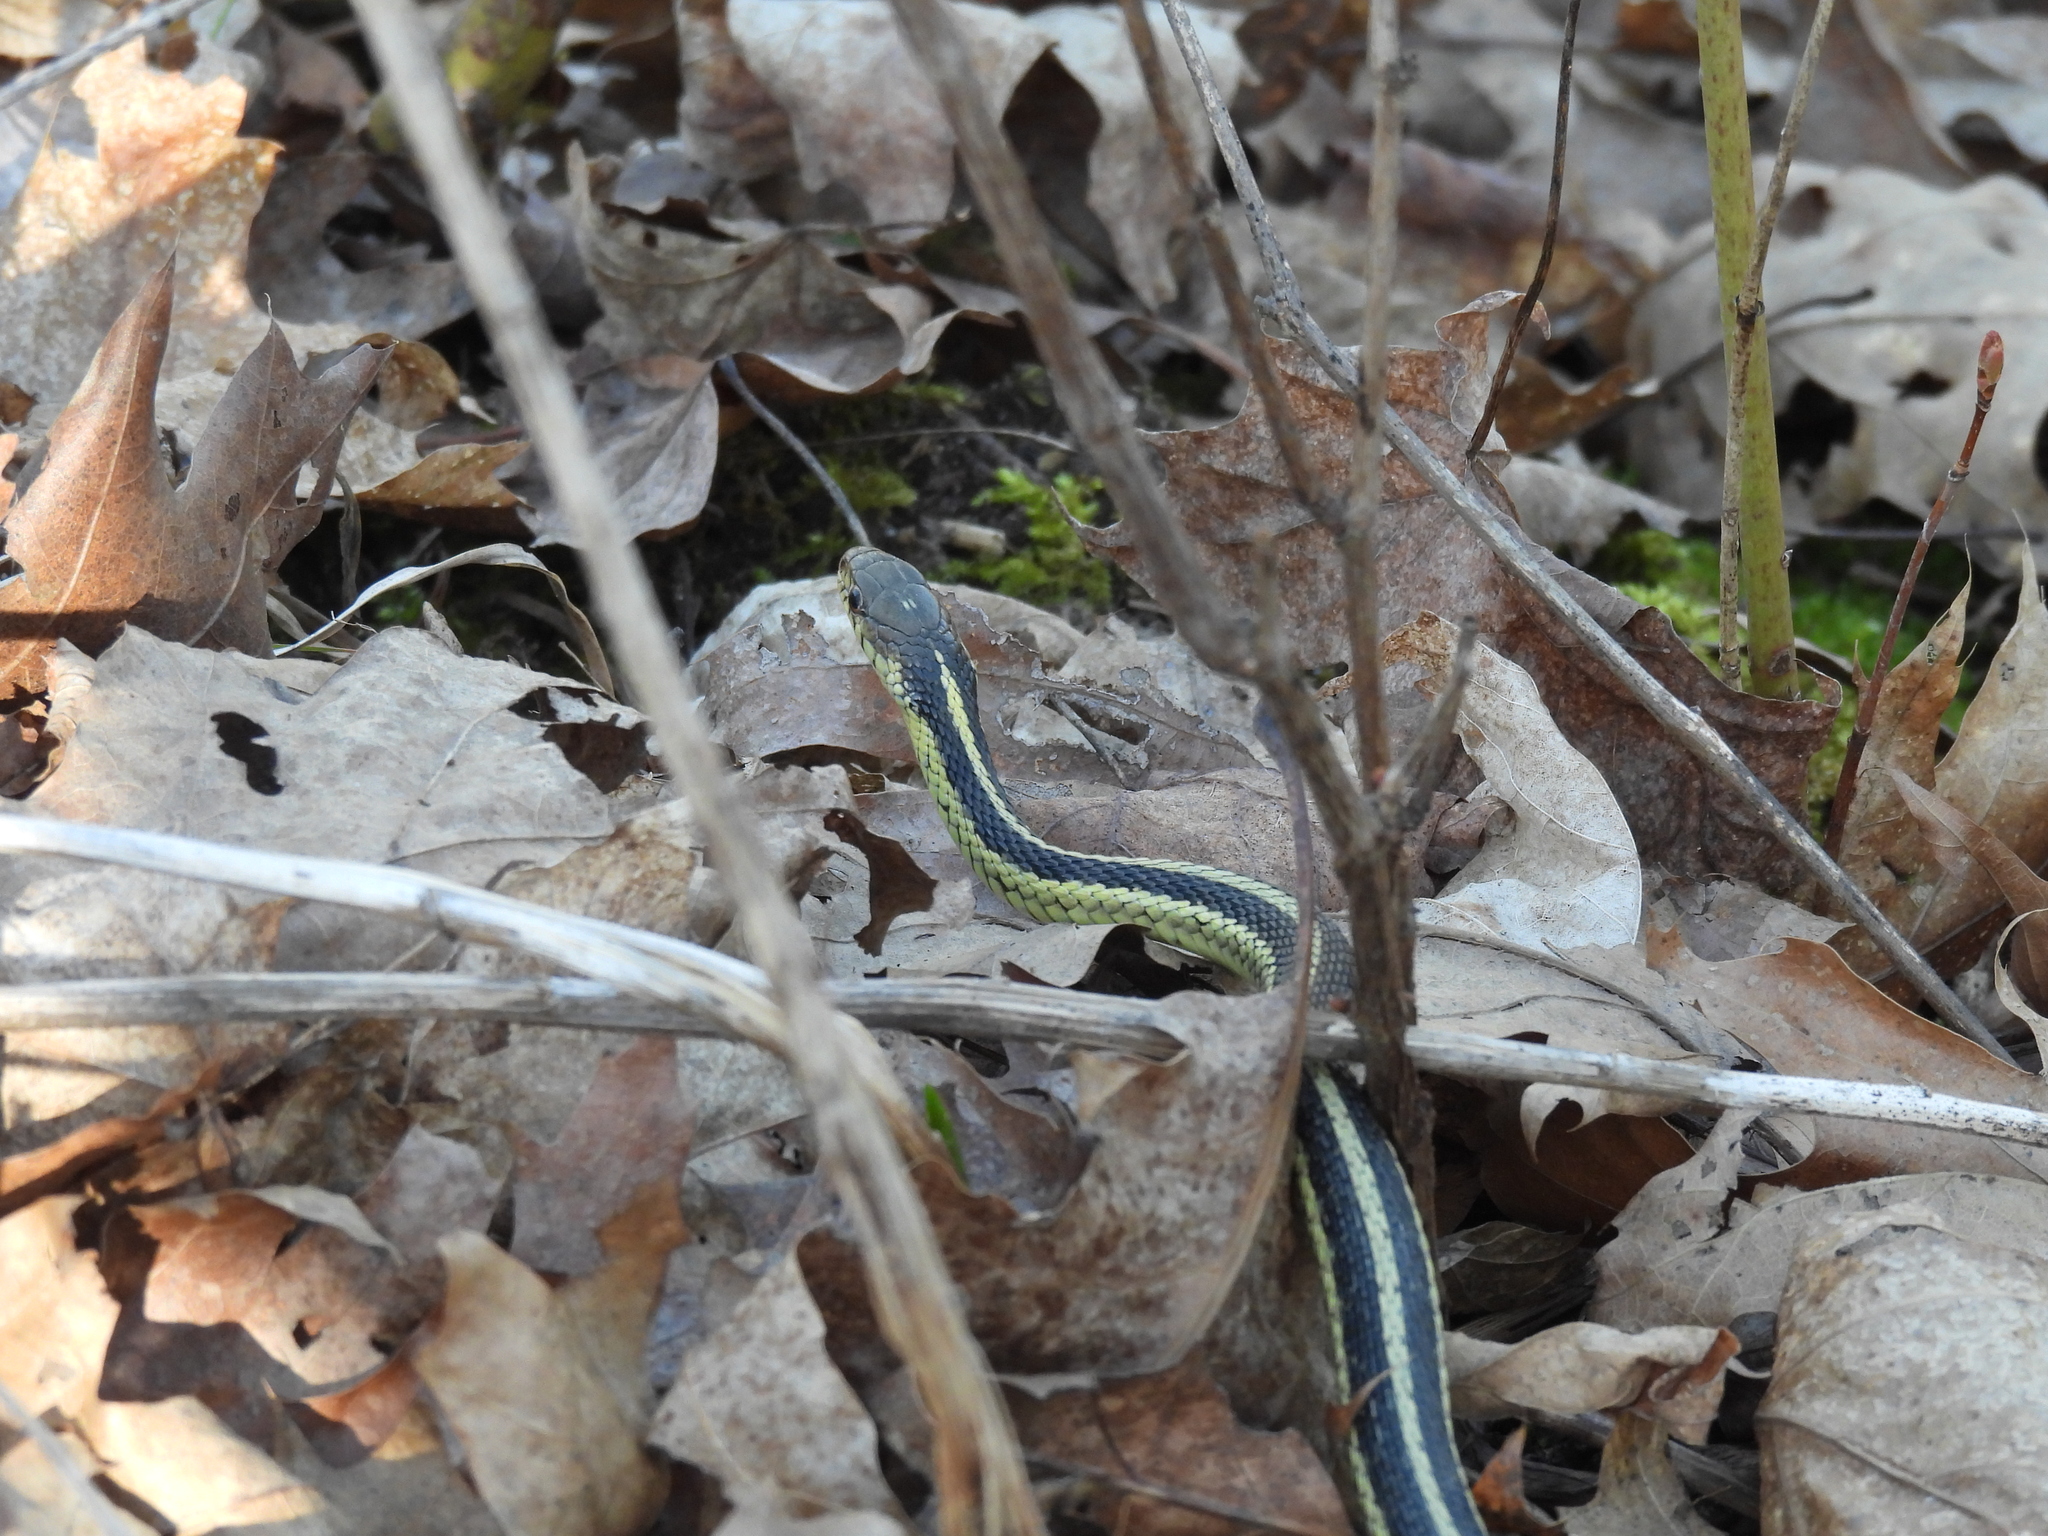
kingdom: Animalia
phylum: Chordata
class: Squamata
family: Colubridae
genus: Thamnophis
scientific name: Thamnophis sirtalis
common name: Common garter snake
